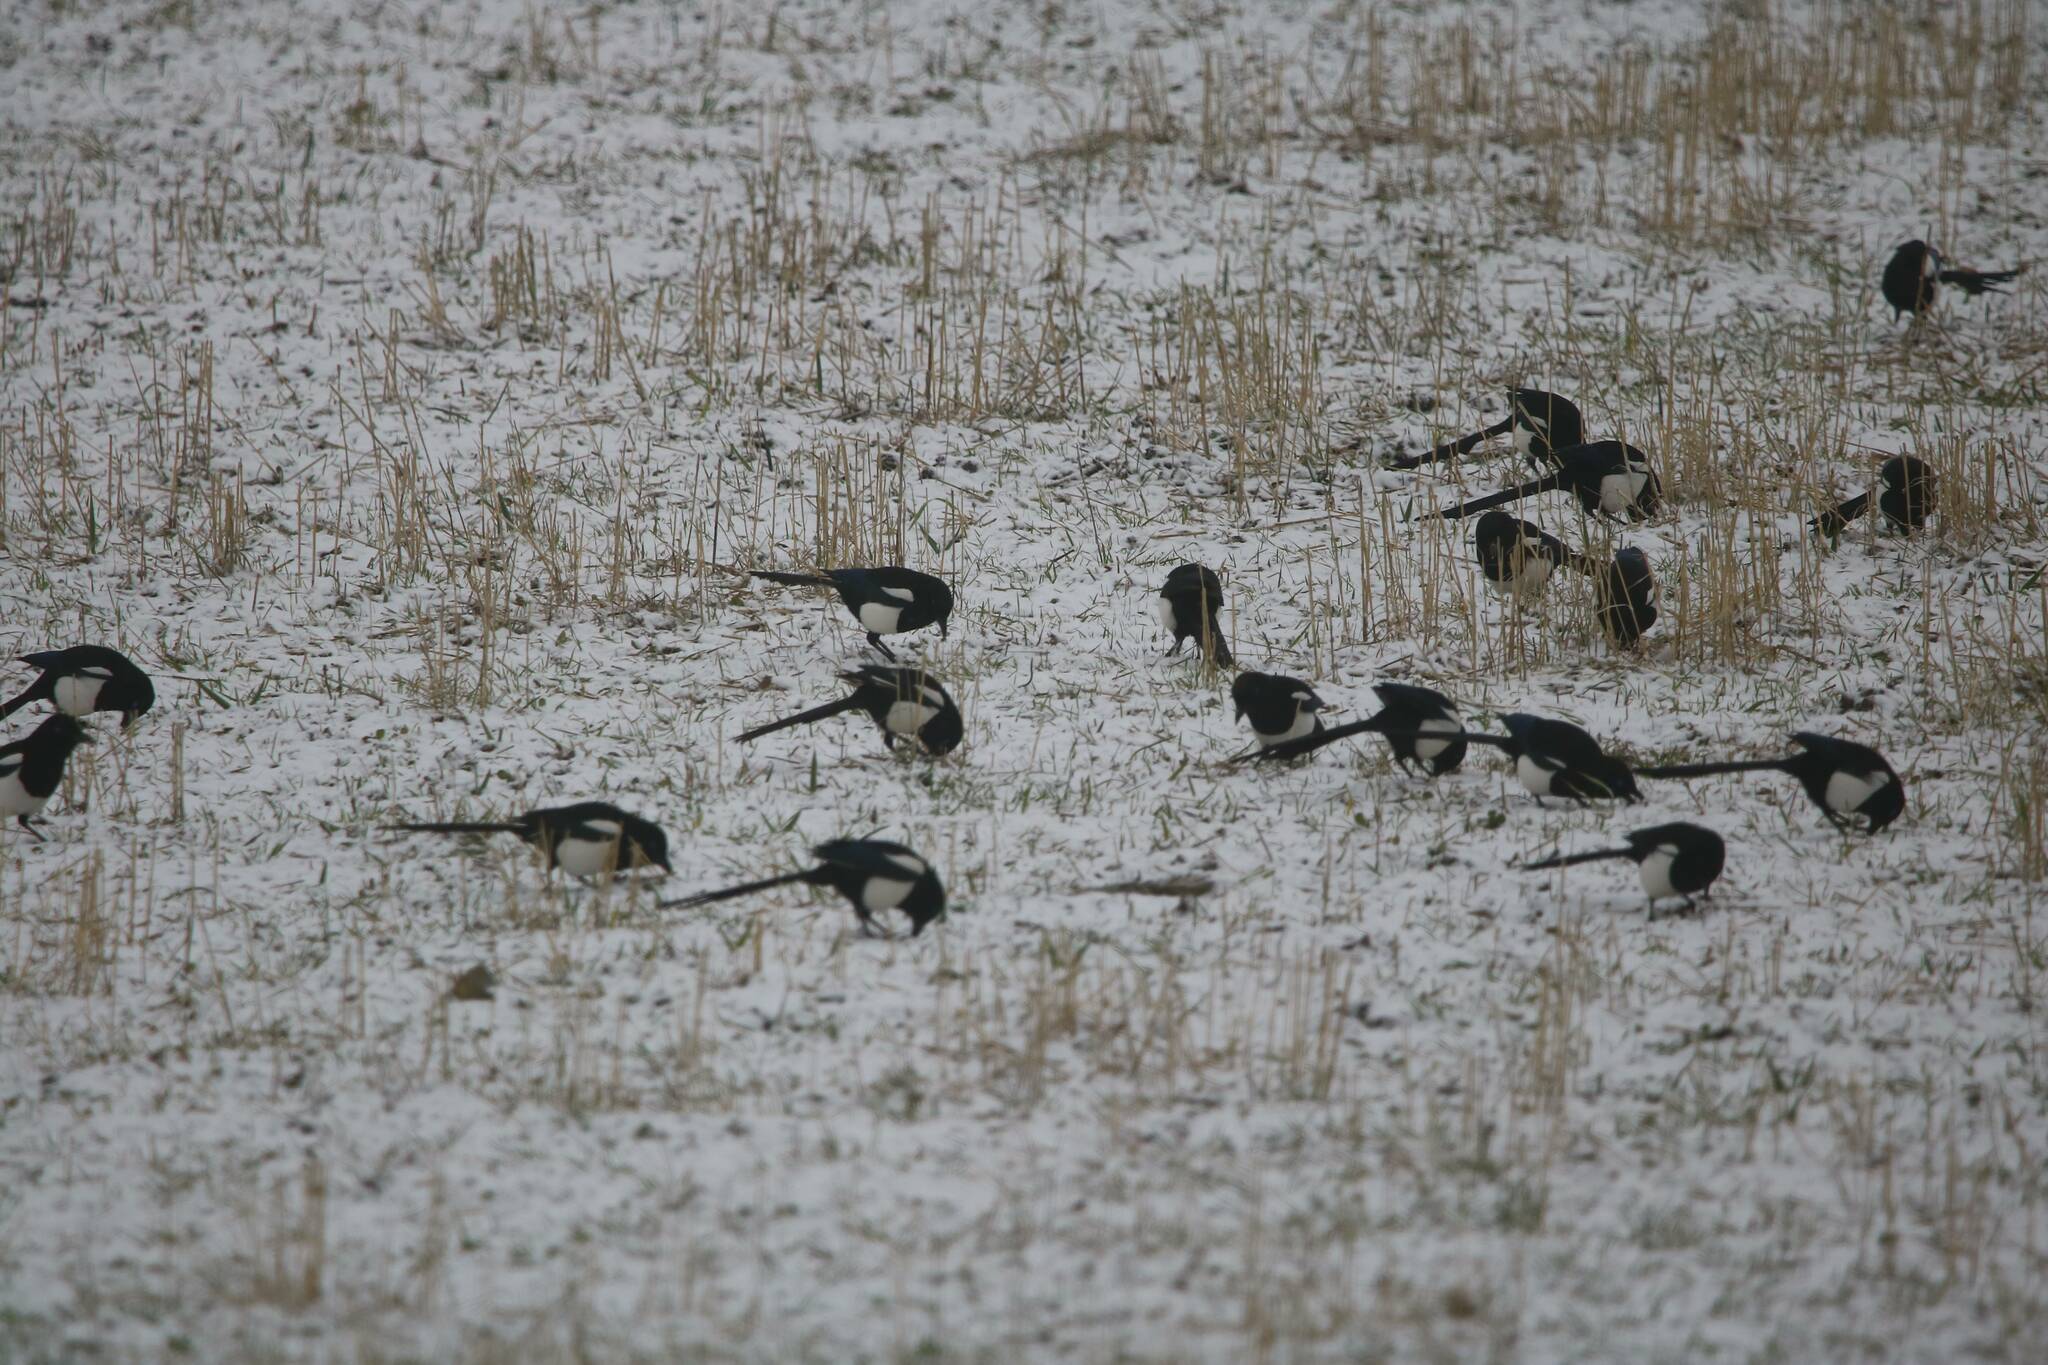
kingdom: Animalia
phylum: Chordata
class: Aves
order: Passeriformes
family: Corvidae
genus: Pica
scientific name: Pica mauritanica
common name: Maghreb magpie
